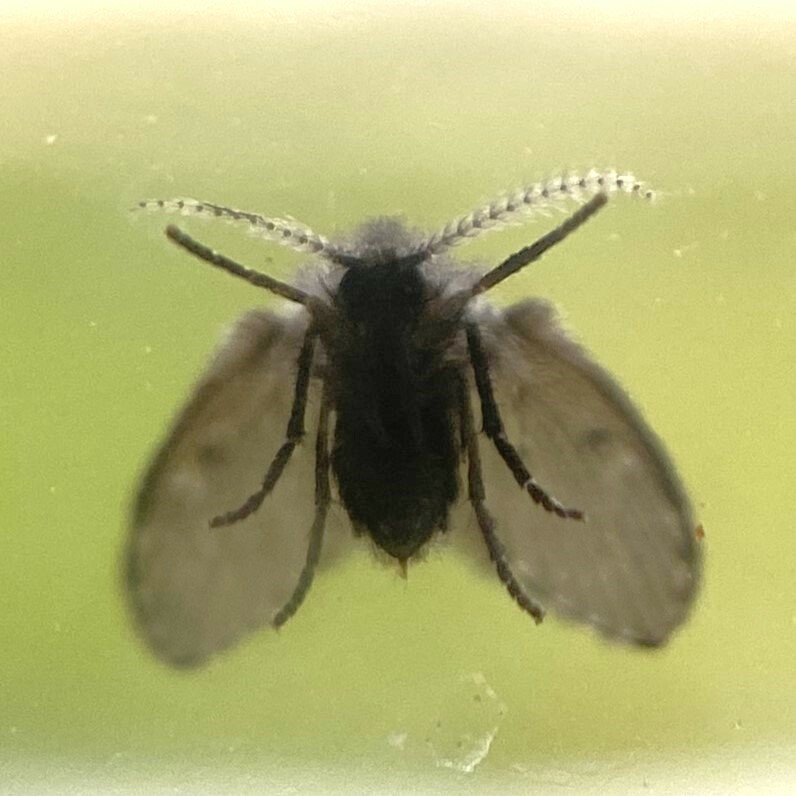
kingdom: Animalia
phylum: Arthropoda
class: Insecta
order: Diptera
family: Psychodidae
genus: Clogmia
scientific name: Clogmia albipunctatus
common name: White-spotted moth fly
